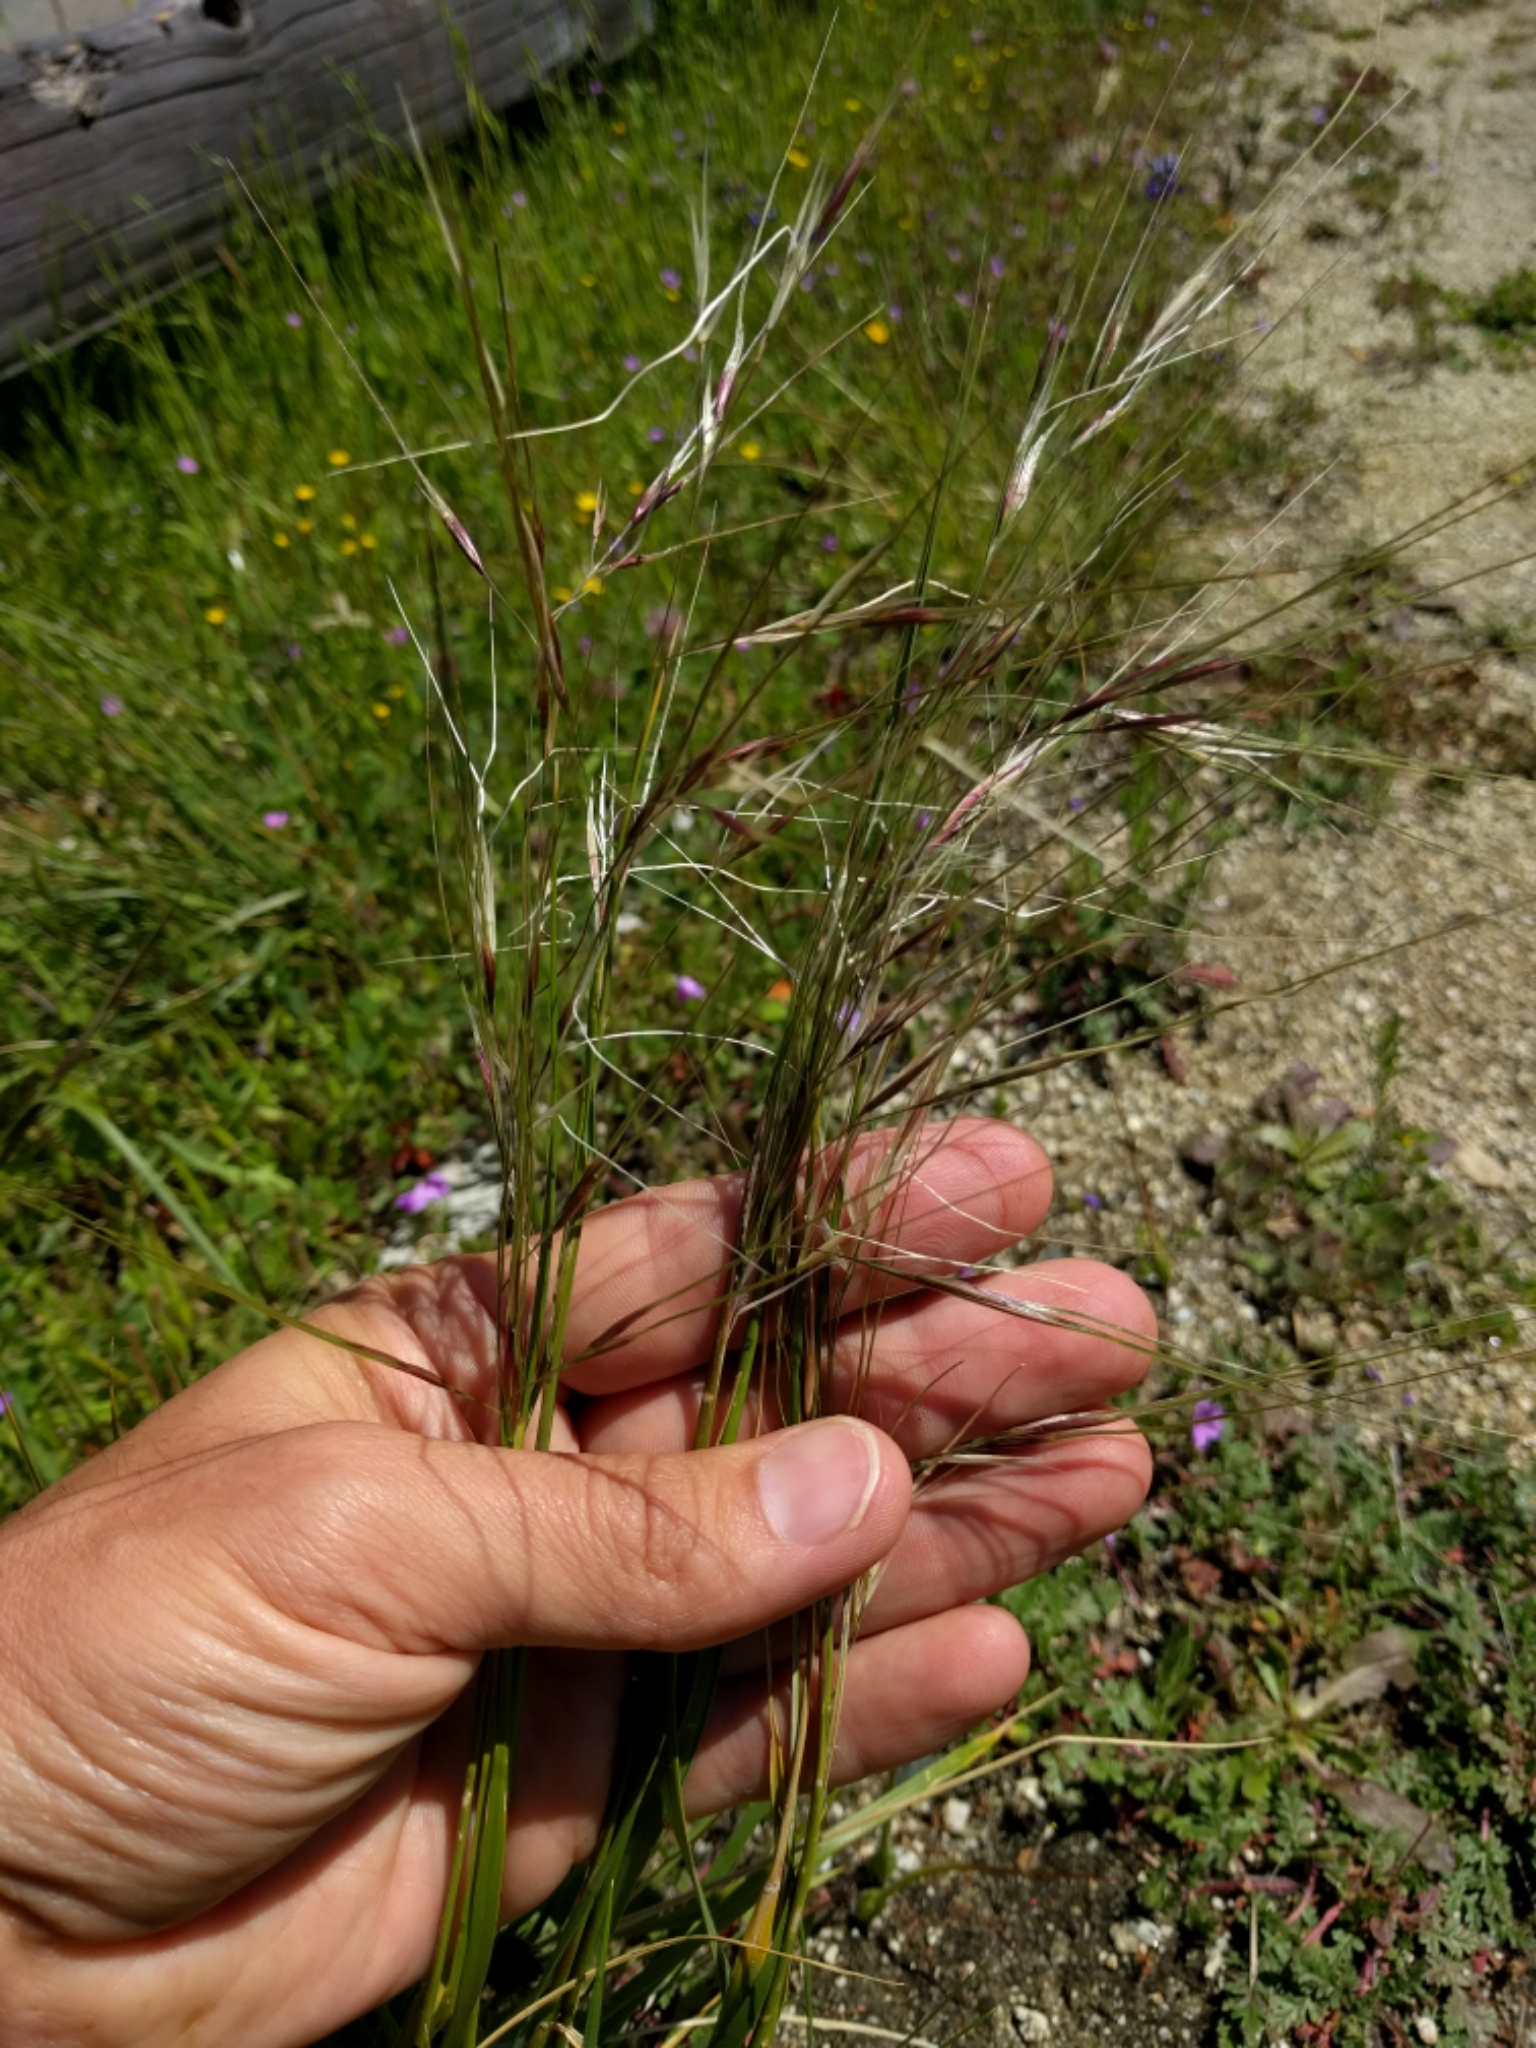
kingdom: Plantae
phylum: Tracheophyta
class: Liliopsida
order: Poales
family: Poaceae
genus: Nassella
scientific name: Nassella pulchra
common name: Purple needlegrass
